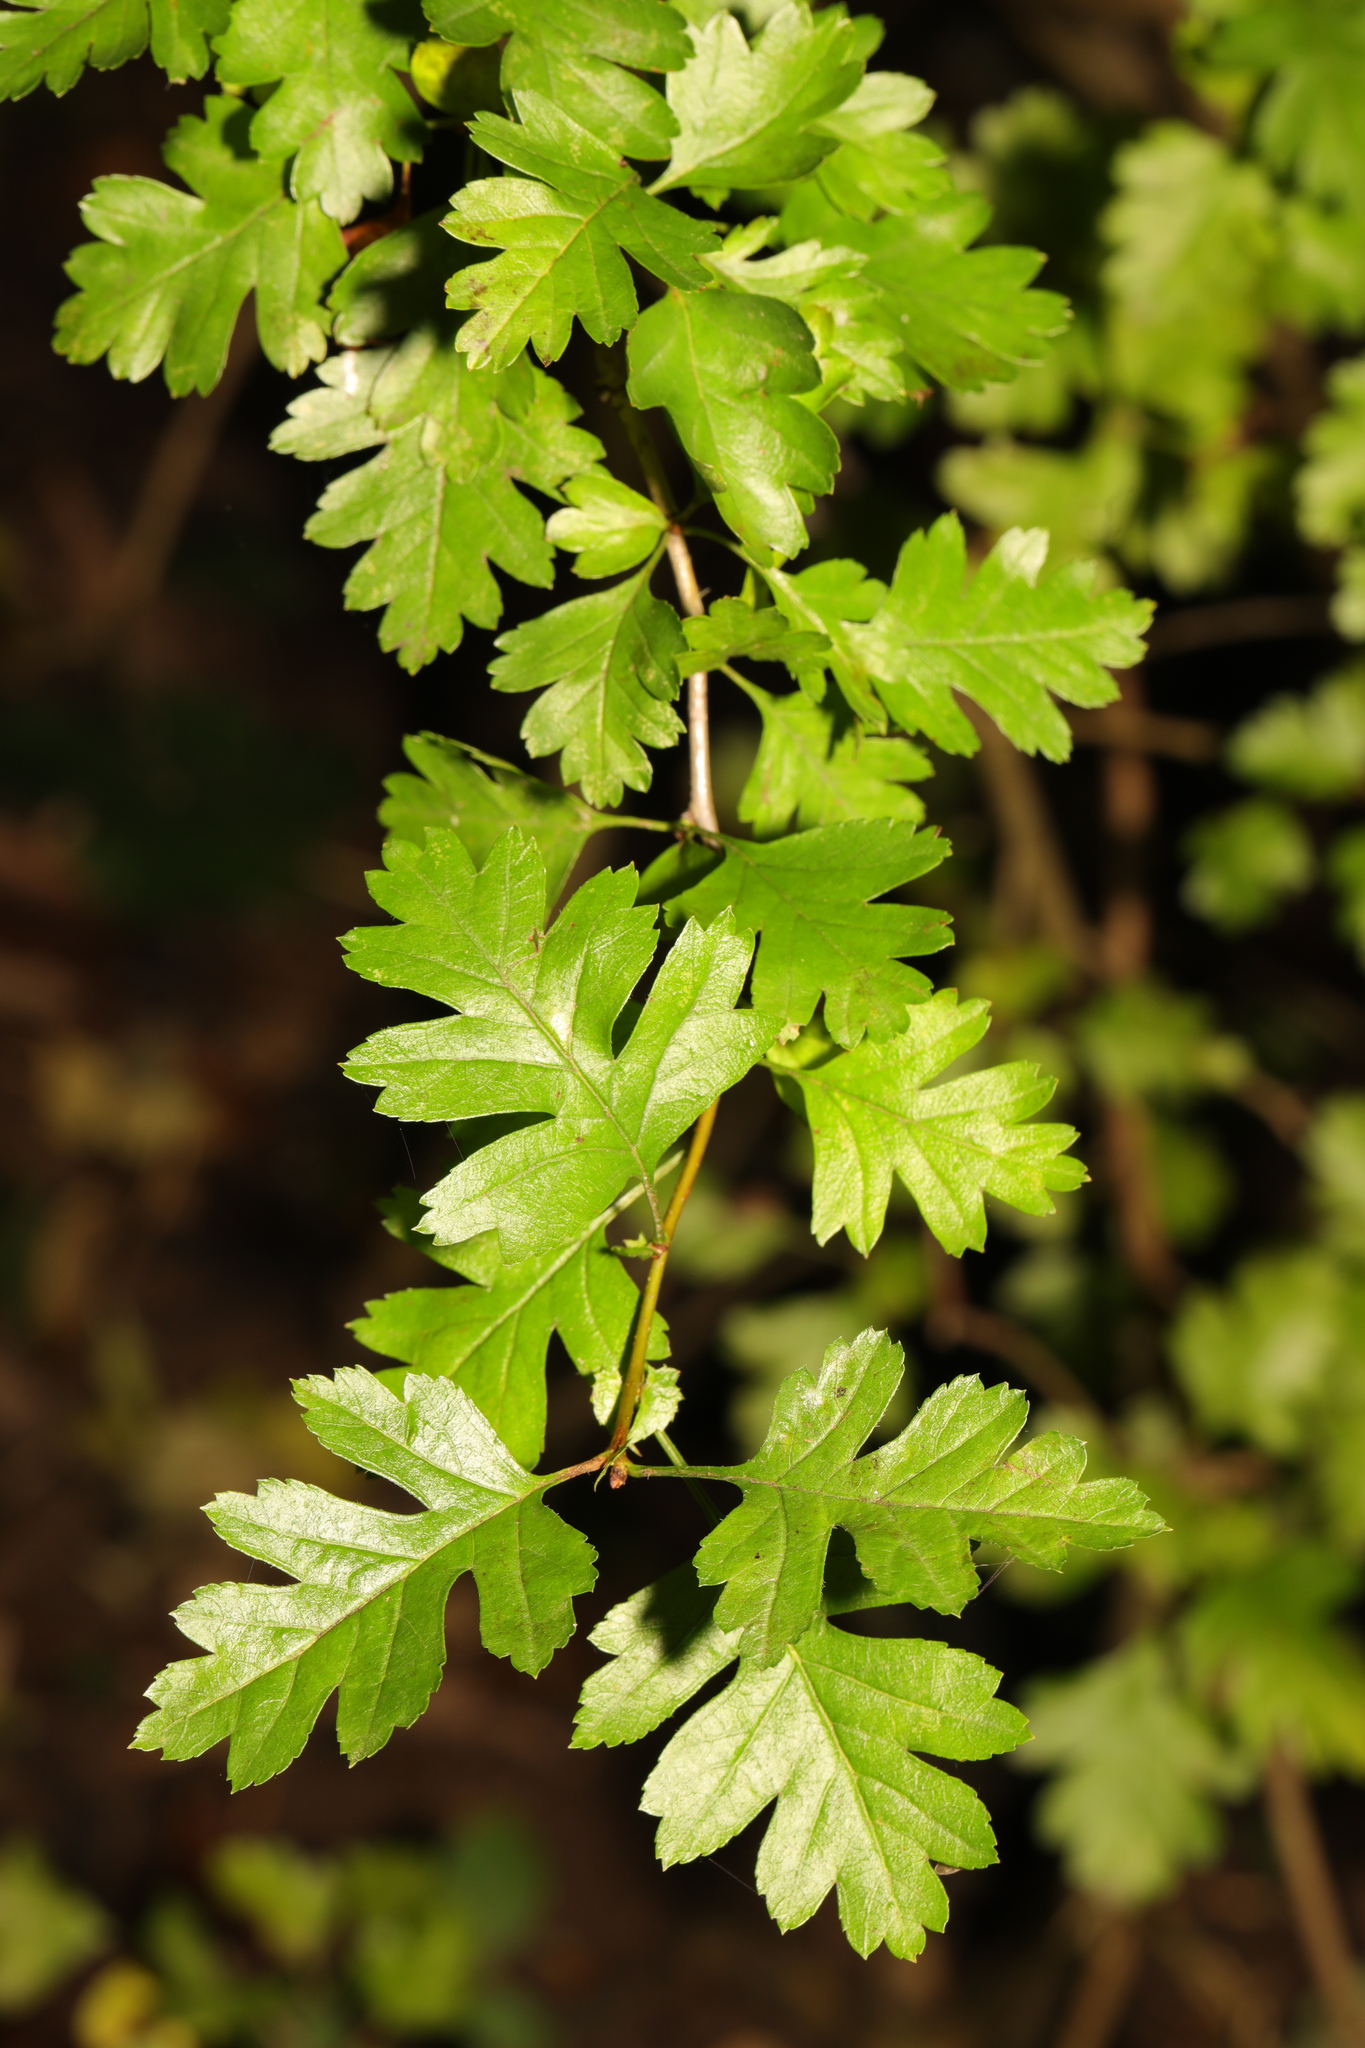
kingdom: Plantae
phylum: Tracheophyta
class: Magnoliopsida
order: Rosales
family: Rosaceae
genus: Crataegus
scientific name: Crataegus monogyna
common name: Hawthorn
